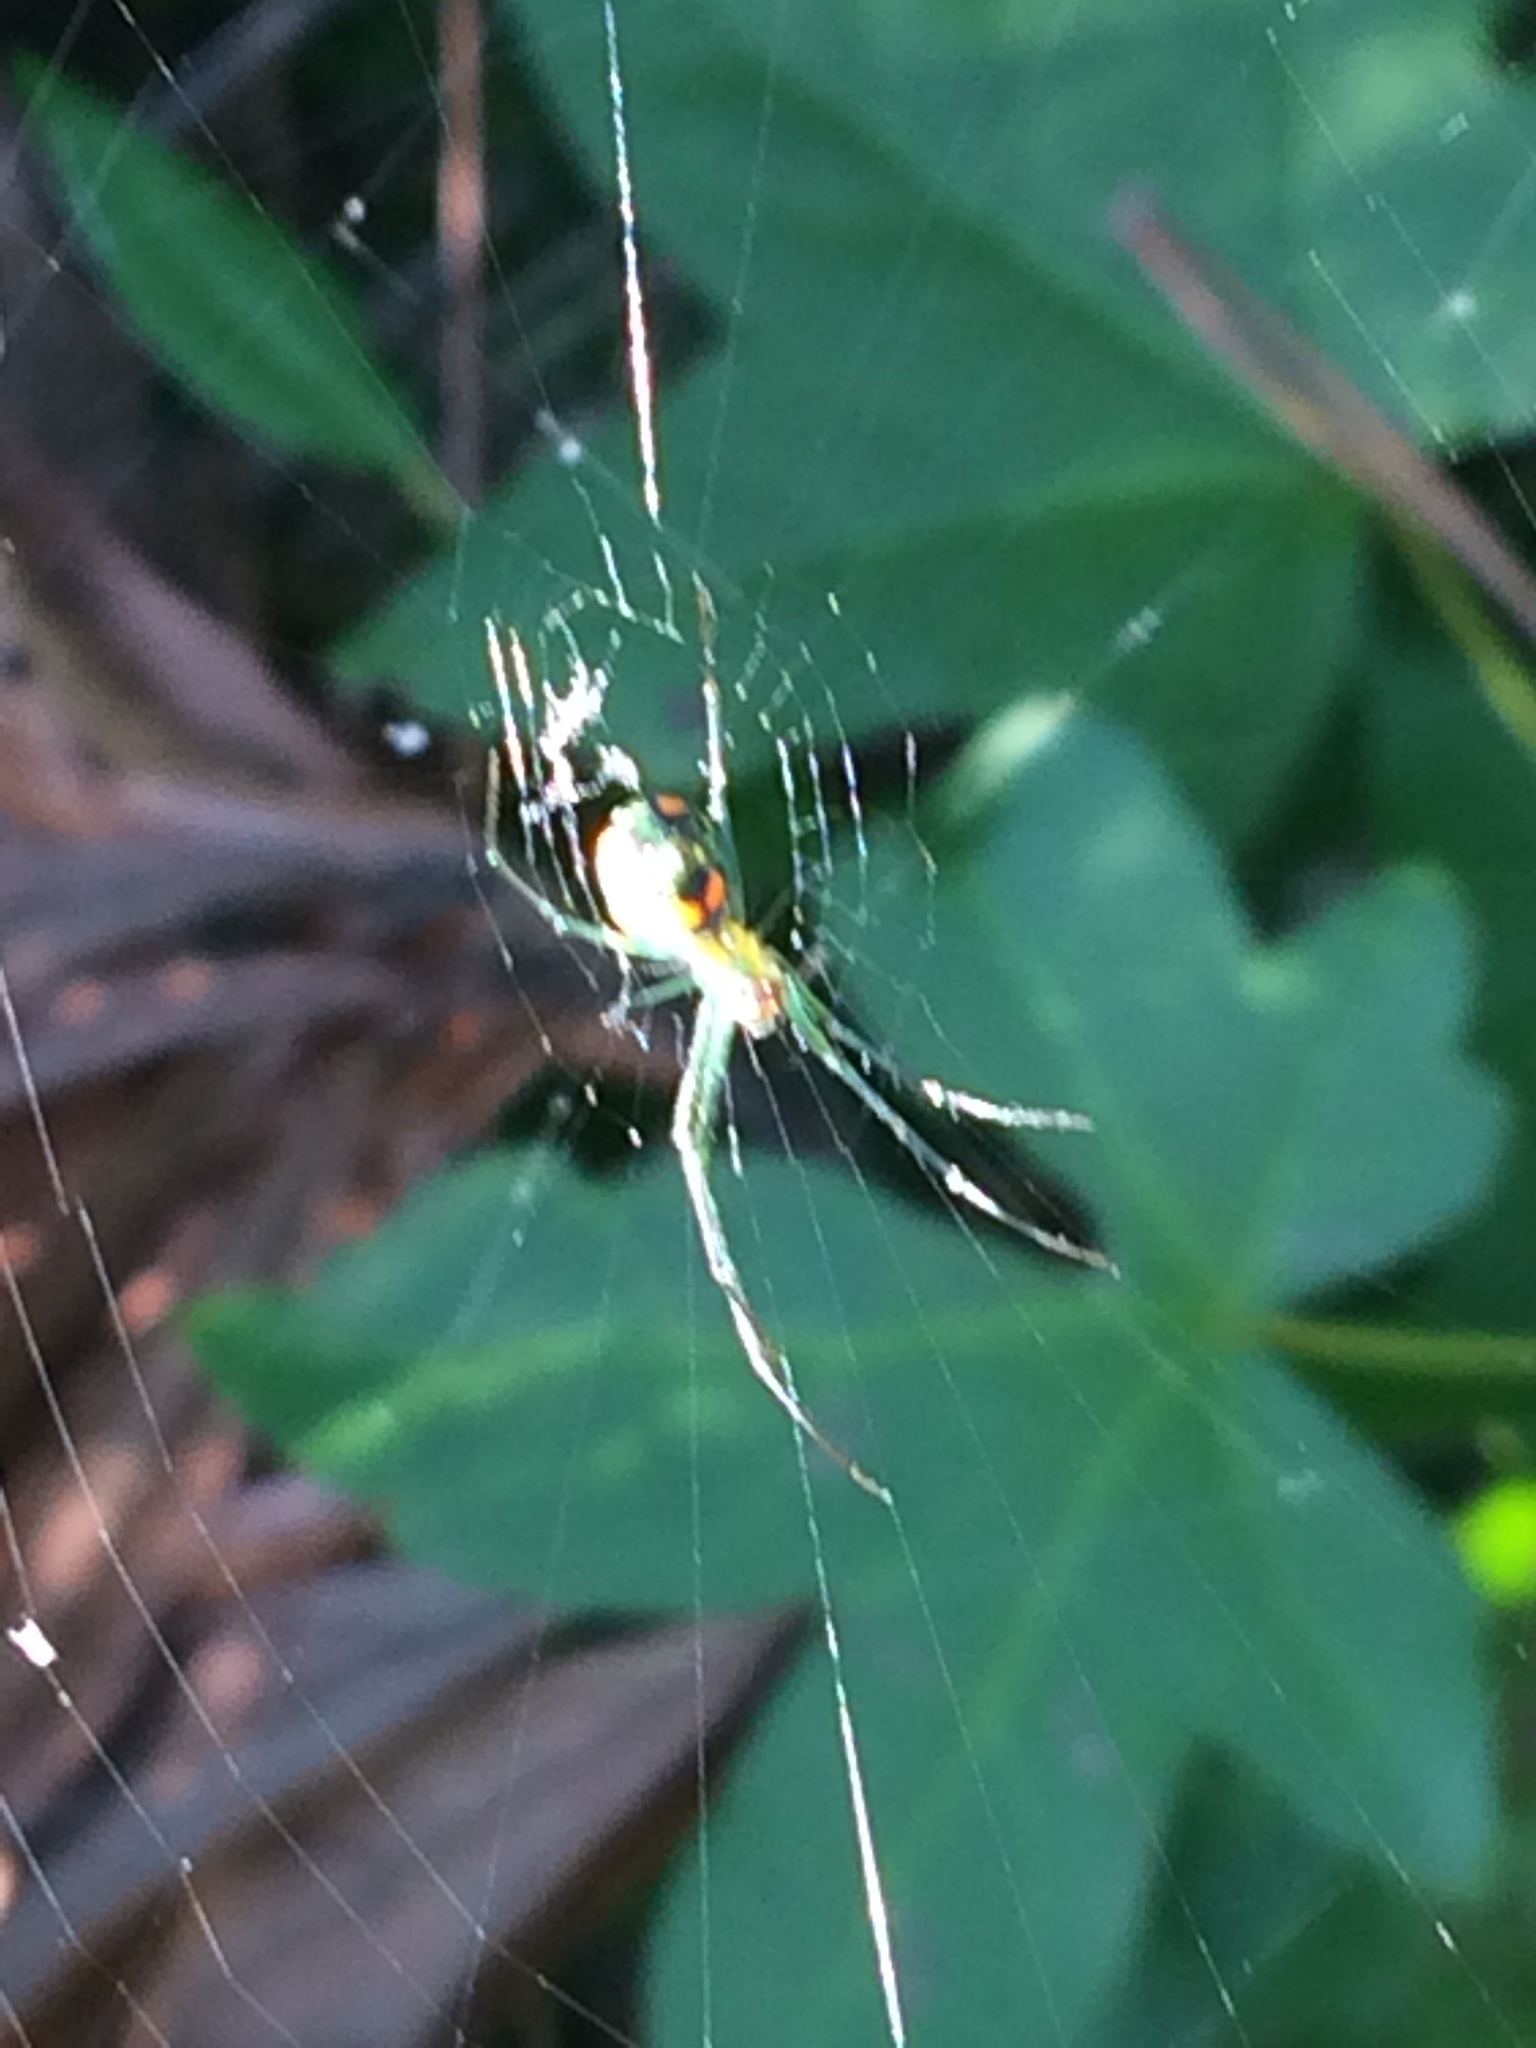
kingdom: Animalia
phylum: Arthropoda
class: Arachnida
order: Araneae
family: Tetragnathidae
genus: Leucauge
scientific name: Leucauge argyrobapta
